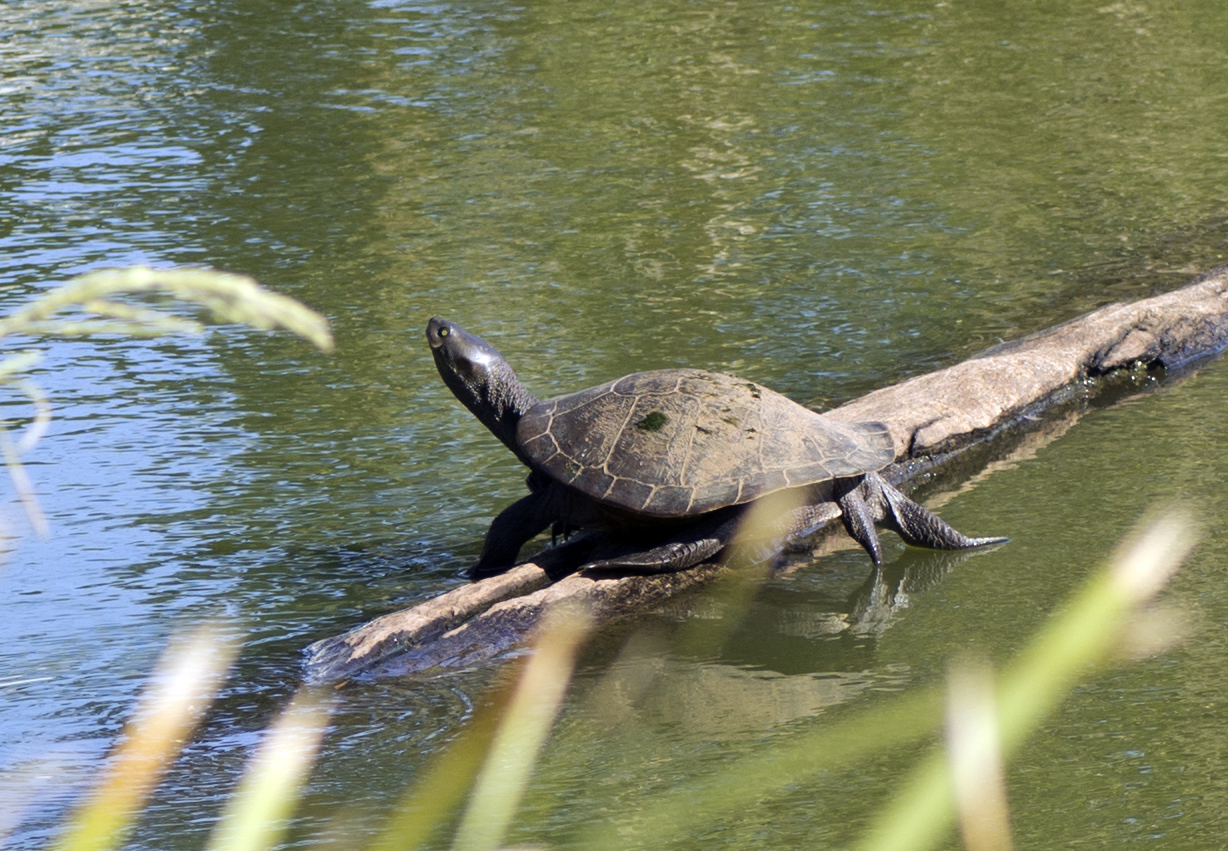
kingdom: Animalia
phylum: Chordata
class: Testudines
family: Chelidae
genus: Emydura
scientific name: Emydura macquarii
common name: Murray river turtle
